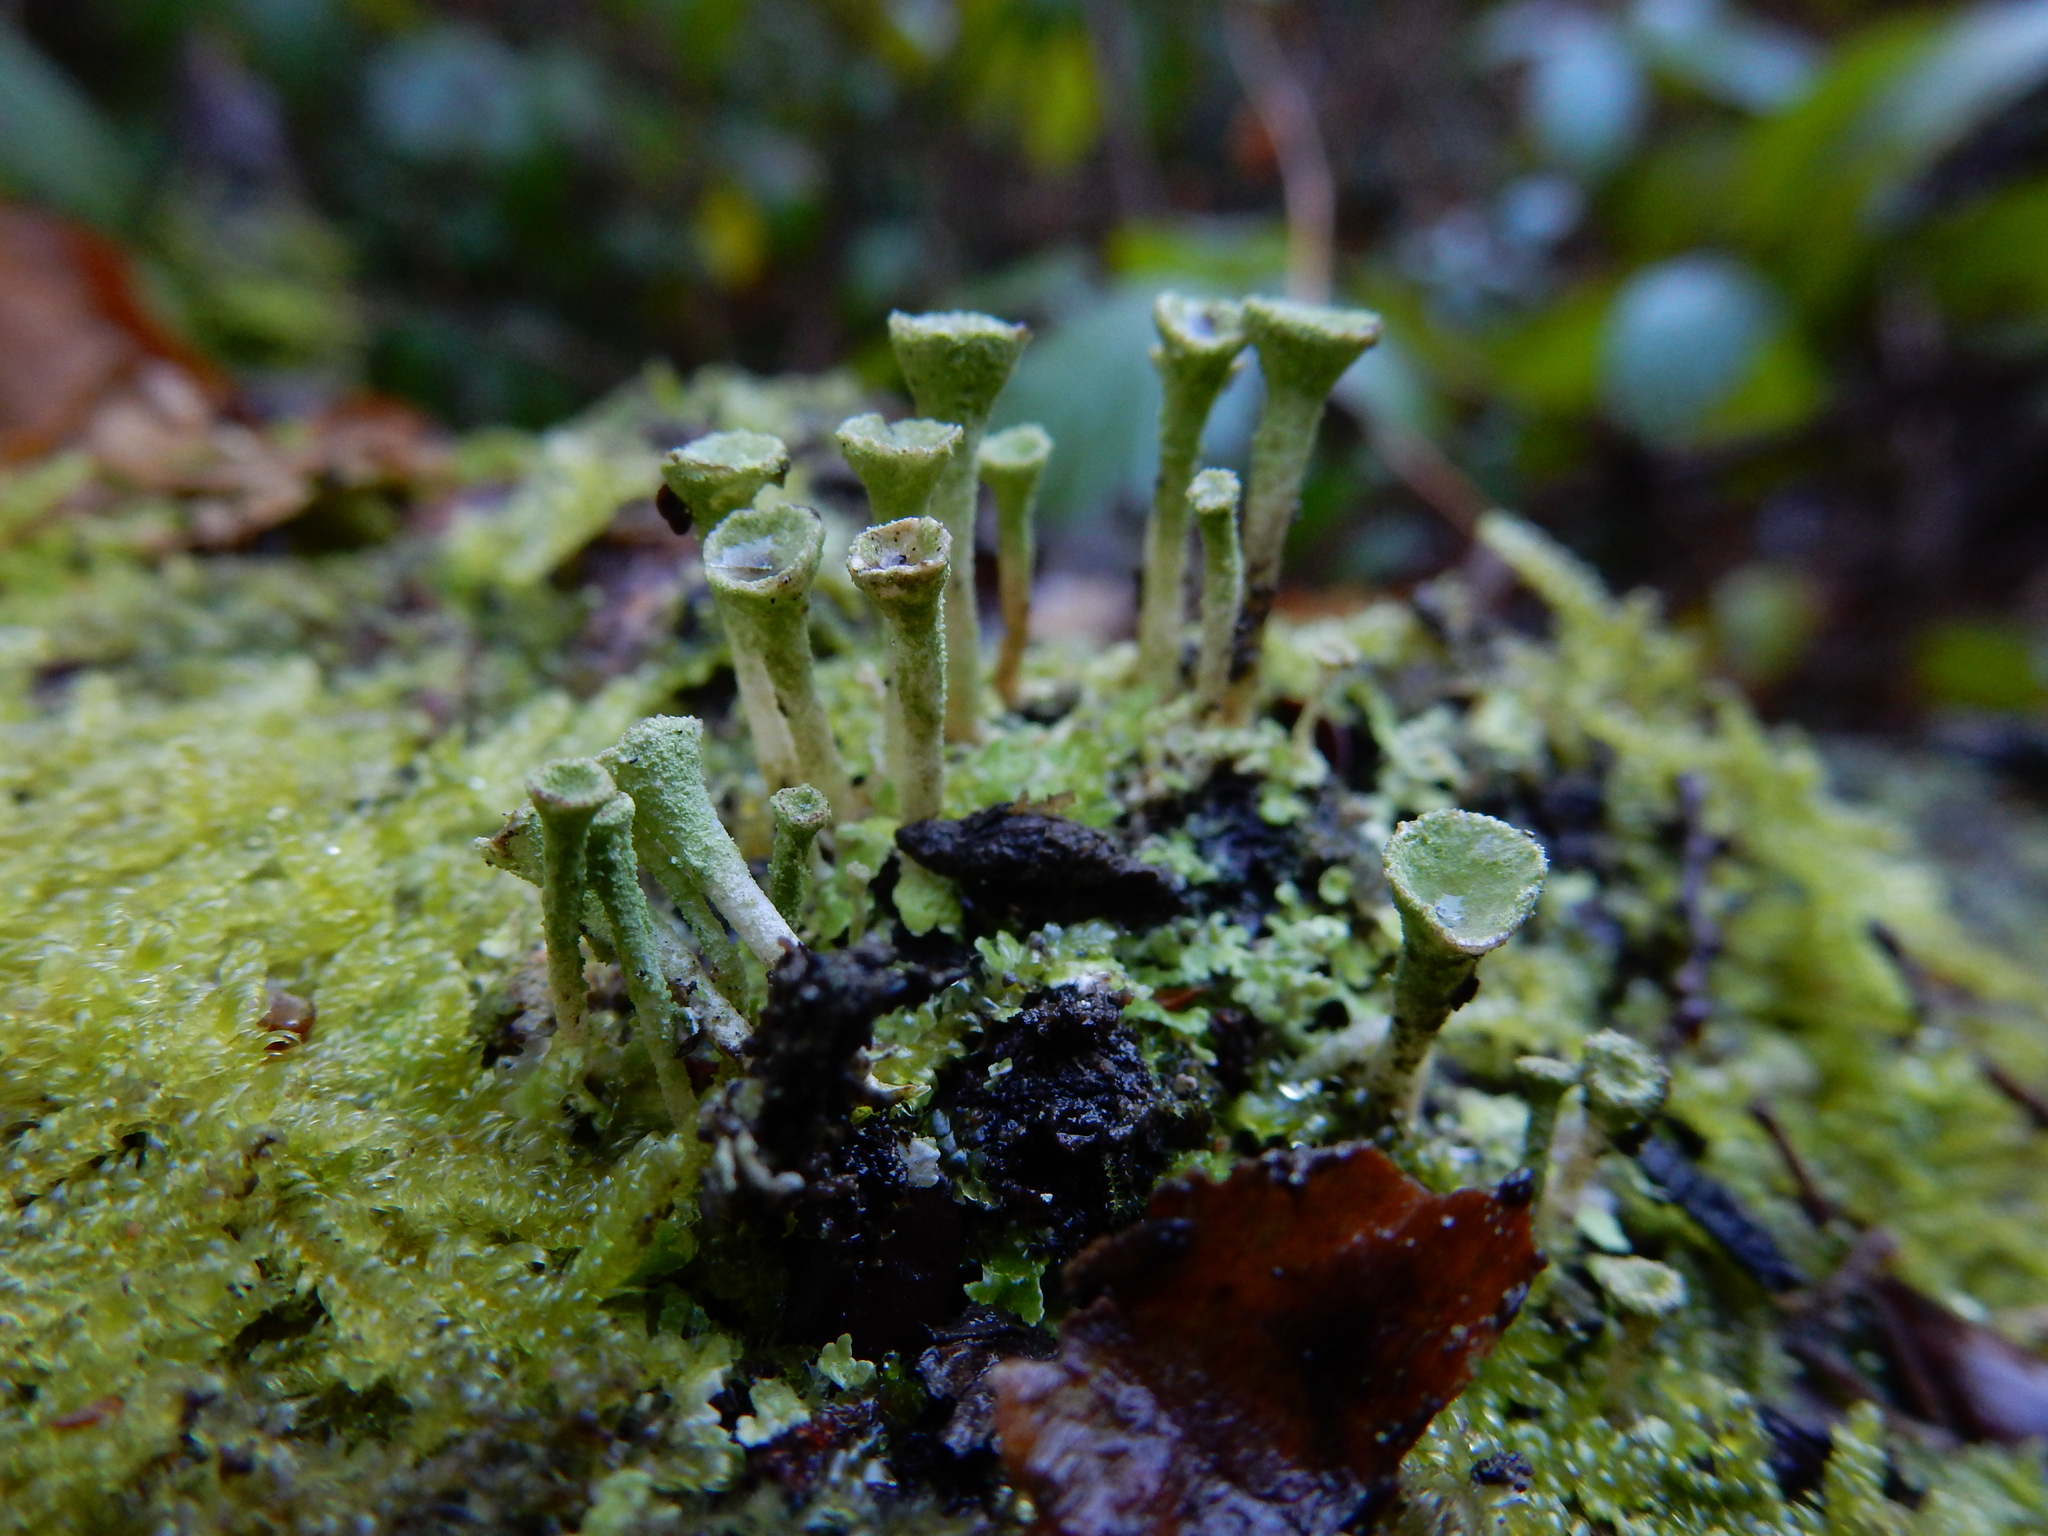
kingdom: Fungi
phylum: Ascomycota
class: Lecanoromycetes
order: Lecanorales
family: Cladoniaceae
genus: Cladonia
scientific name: Cladonia fimbriata
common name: Powdered trumpet lichen
